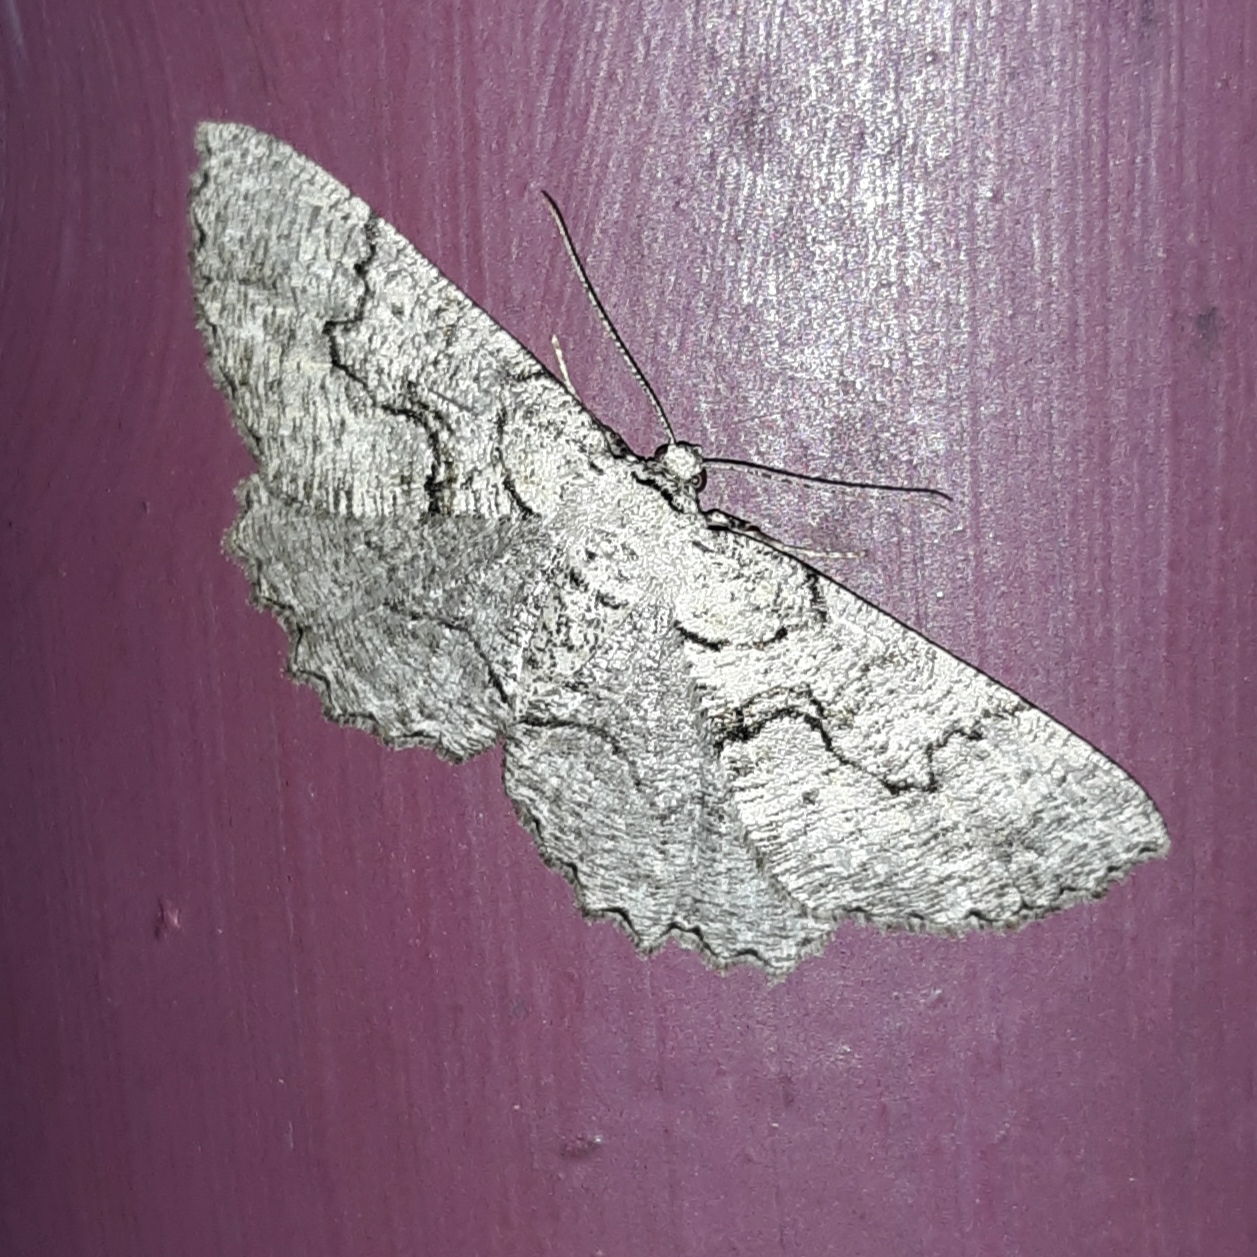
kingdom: Animalia
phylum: Arthropoda
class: Insecta
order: Lepidoptera
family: Geometridae
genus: Cymatophora
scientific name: Cymatophora approximaria
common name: Giant gray moth
